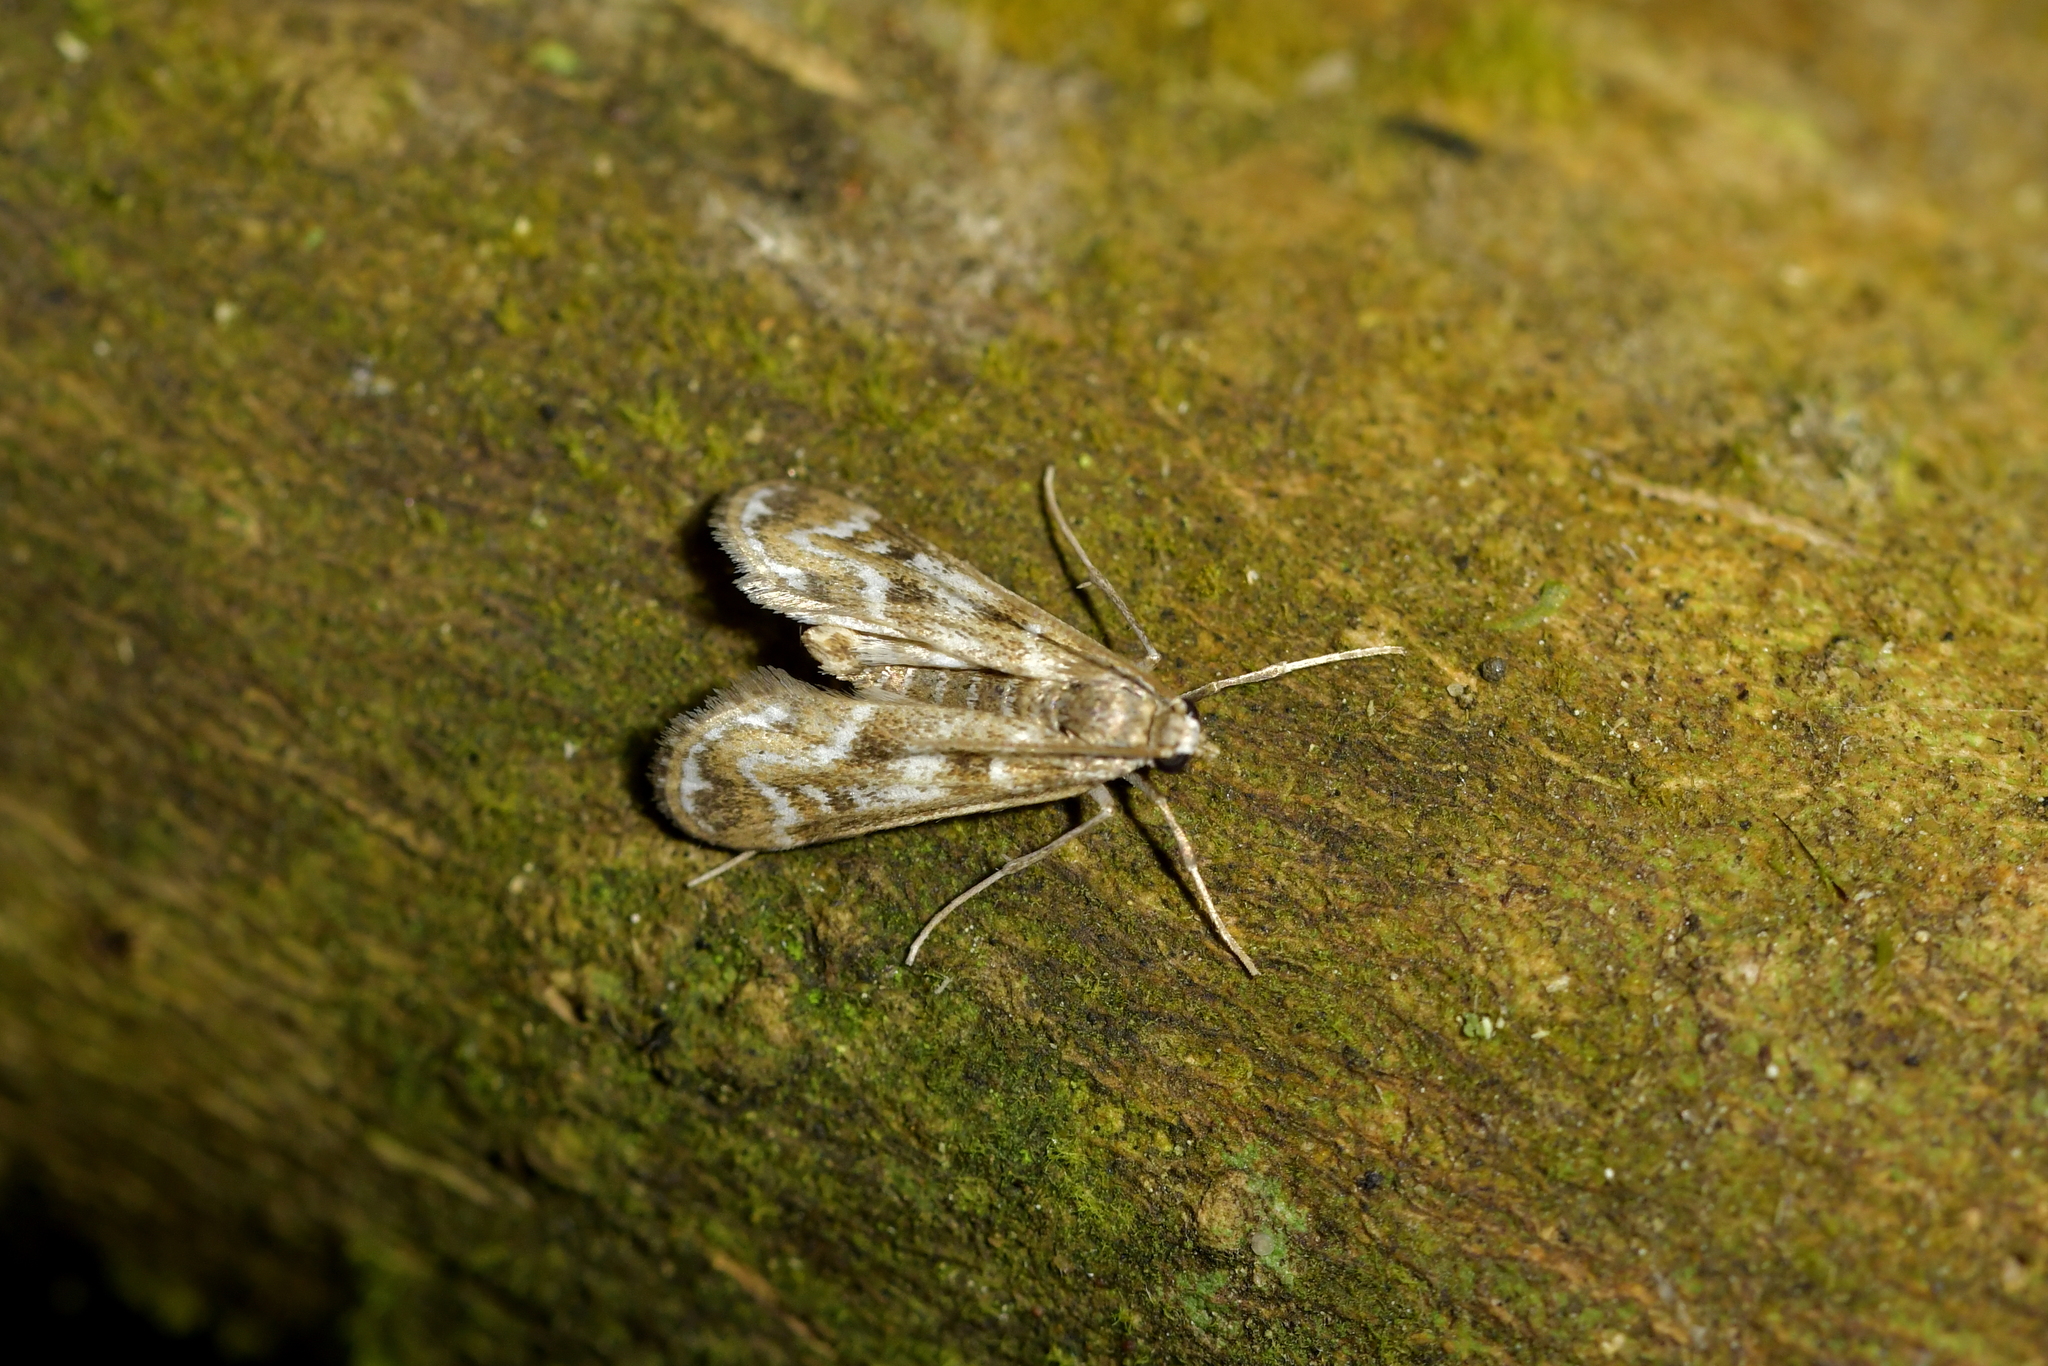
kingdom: Animalia
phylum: Arthropoda
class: Insecta
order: Lepidoptera
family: Crambidae
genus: Hygraula
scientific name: Hygraula nitens
